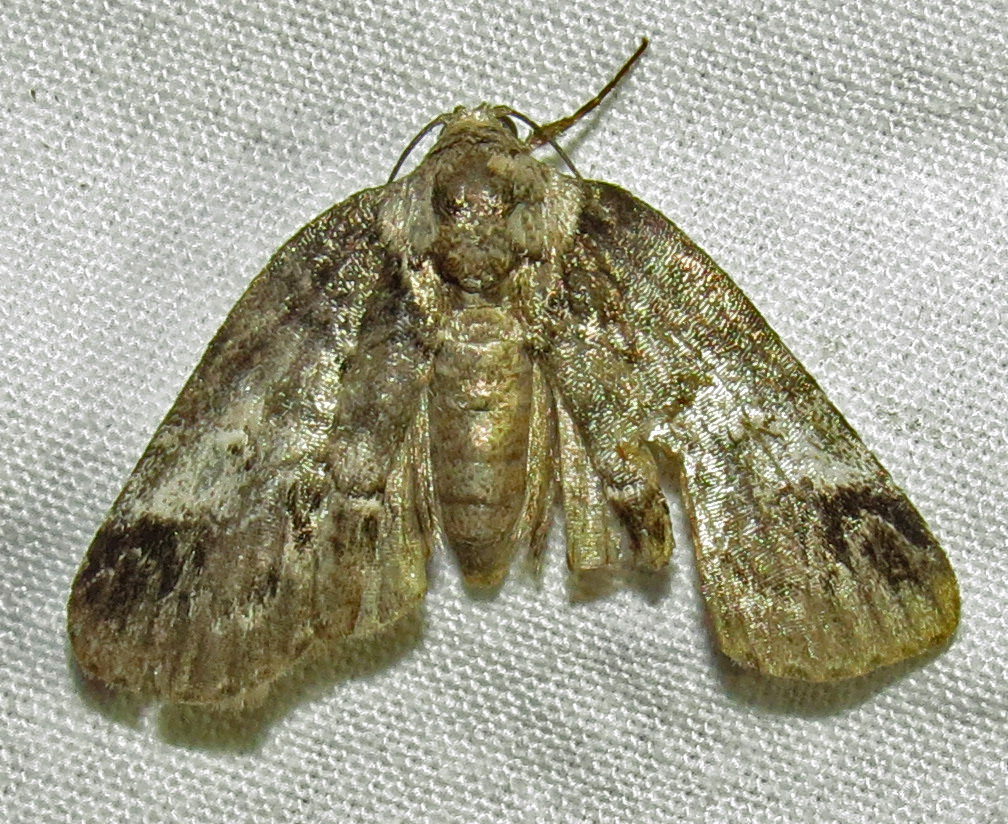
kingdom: Animalia
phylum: Arthropoda
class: Insecta
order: Lepidoptera
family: Nolidae
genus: Baileya
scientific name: Baileya dormitans
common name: Sleeping baileya moth
